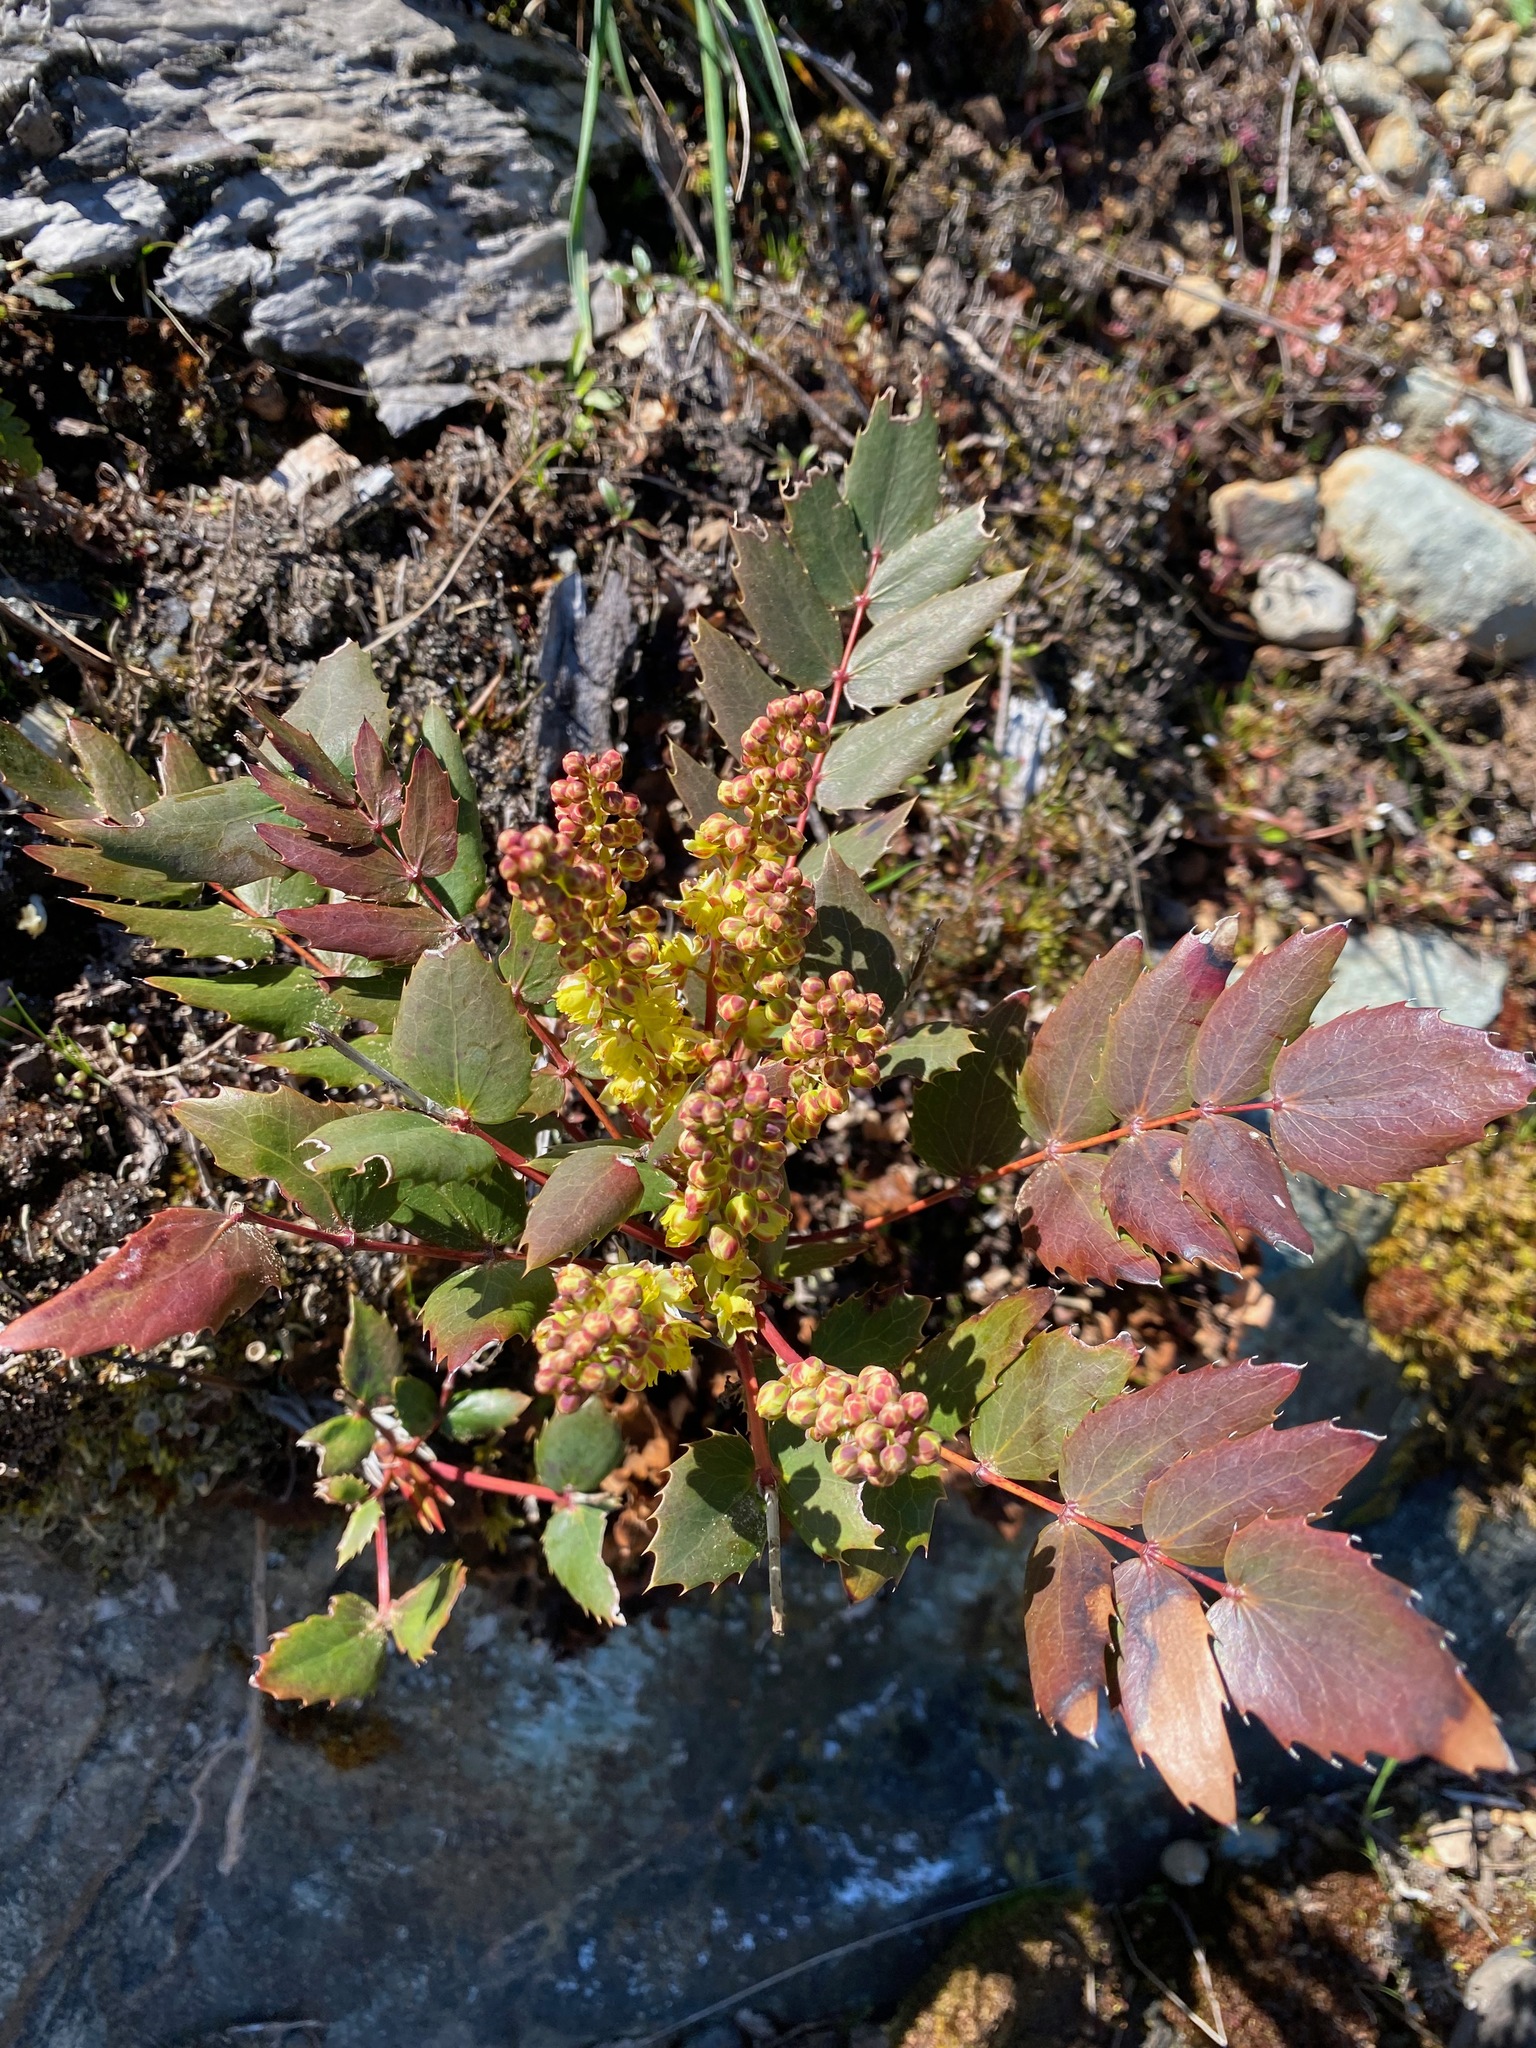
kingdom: Plantae
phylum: Tracheophyta
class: Magnoliopsida
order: Ranunculales
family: Berberidaceae
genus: Mahonia
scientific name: Mahonia nervosa
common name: Cascade oregon-grape
